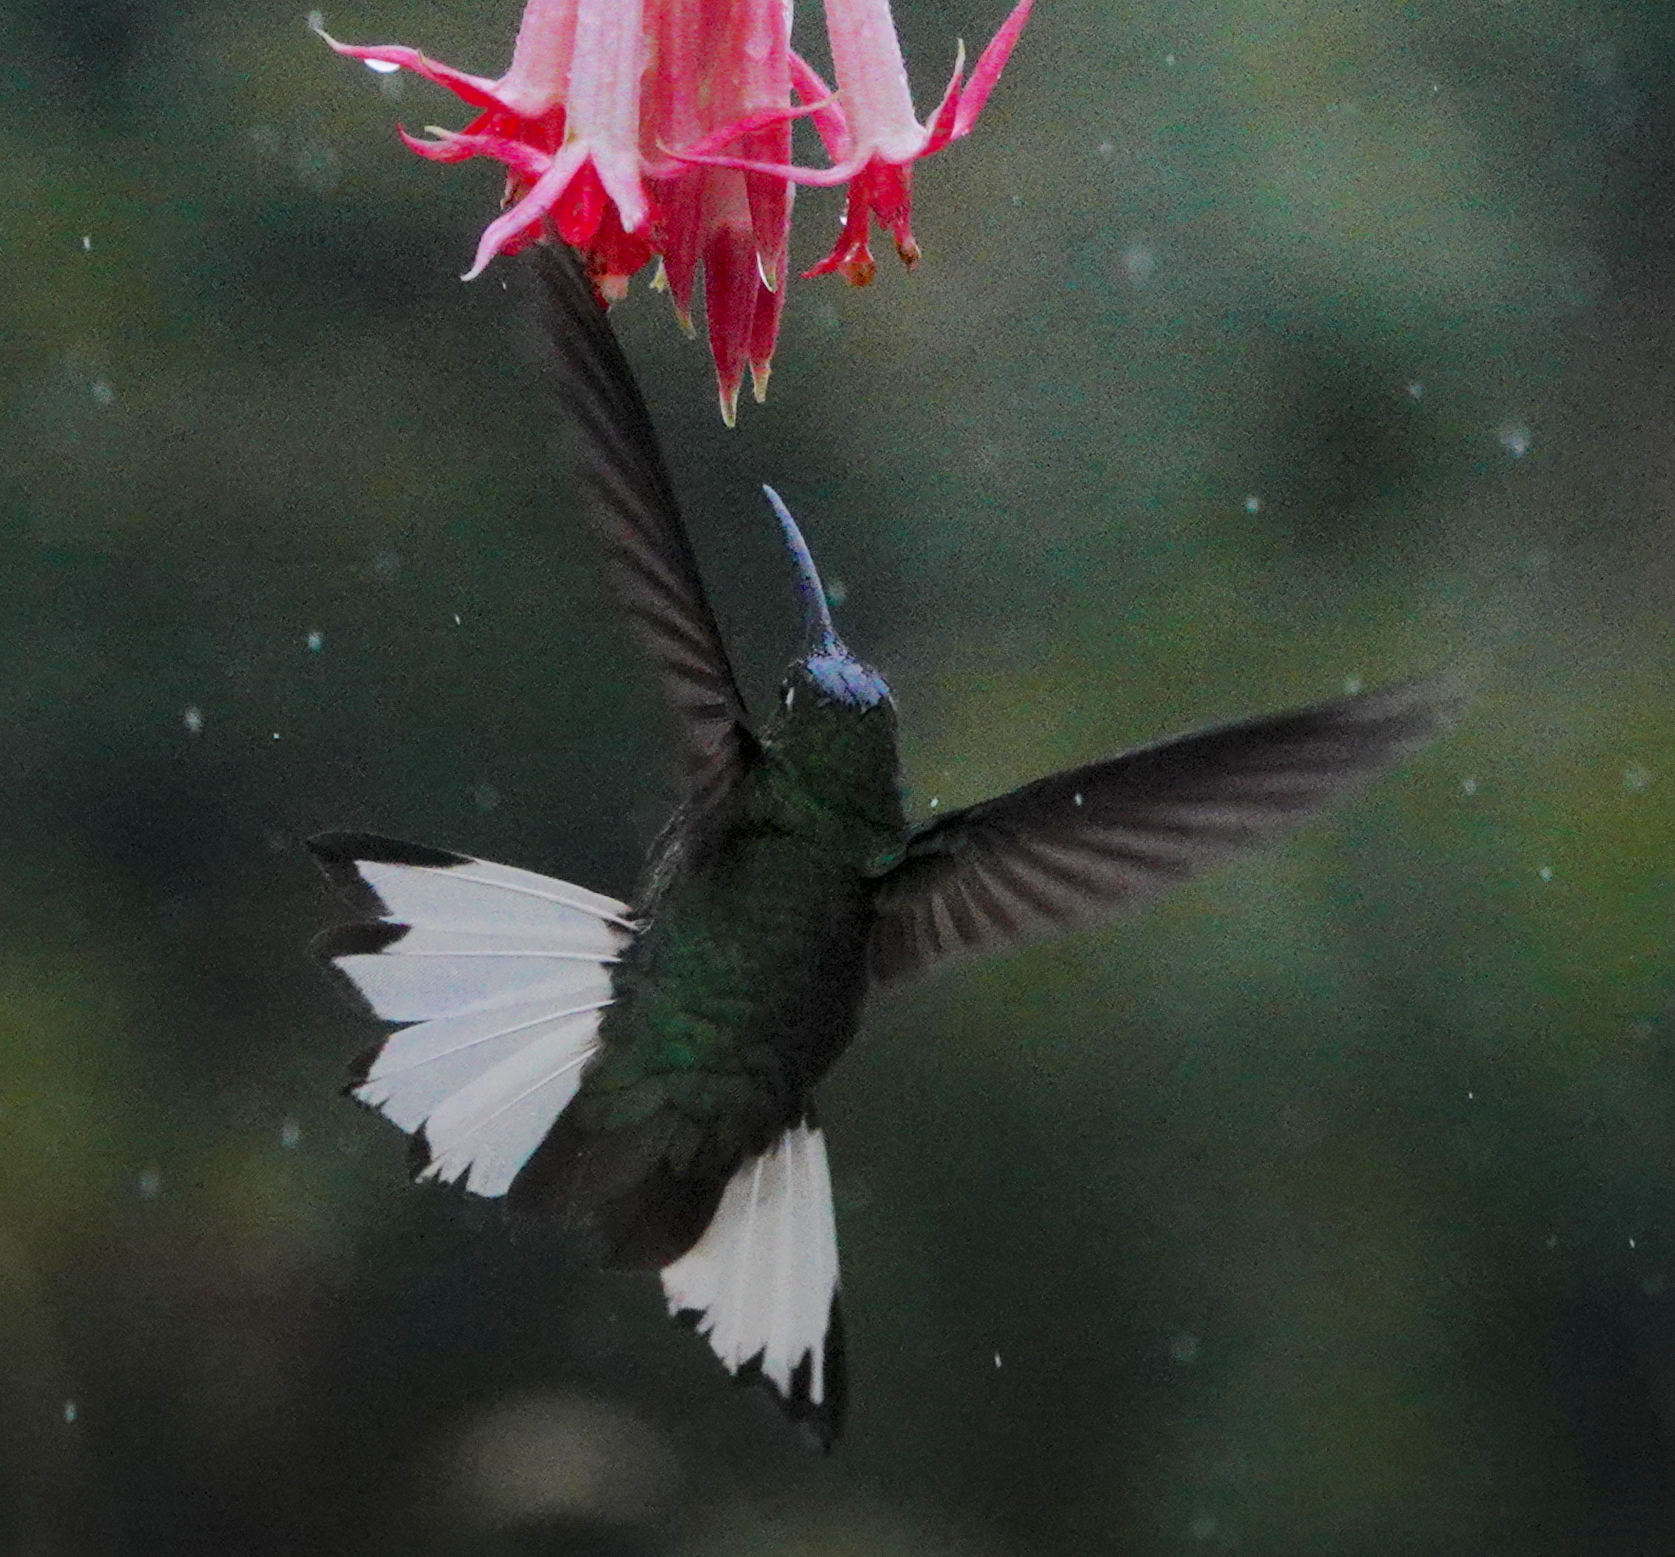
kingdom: Animalia
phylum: Chordata
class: Aves
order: Apodiformes
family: Trochilidae
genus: Lafresnaya
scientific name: Lafresnaya lafresnayi
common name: Mountain velvetbreast
